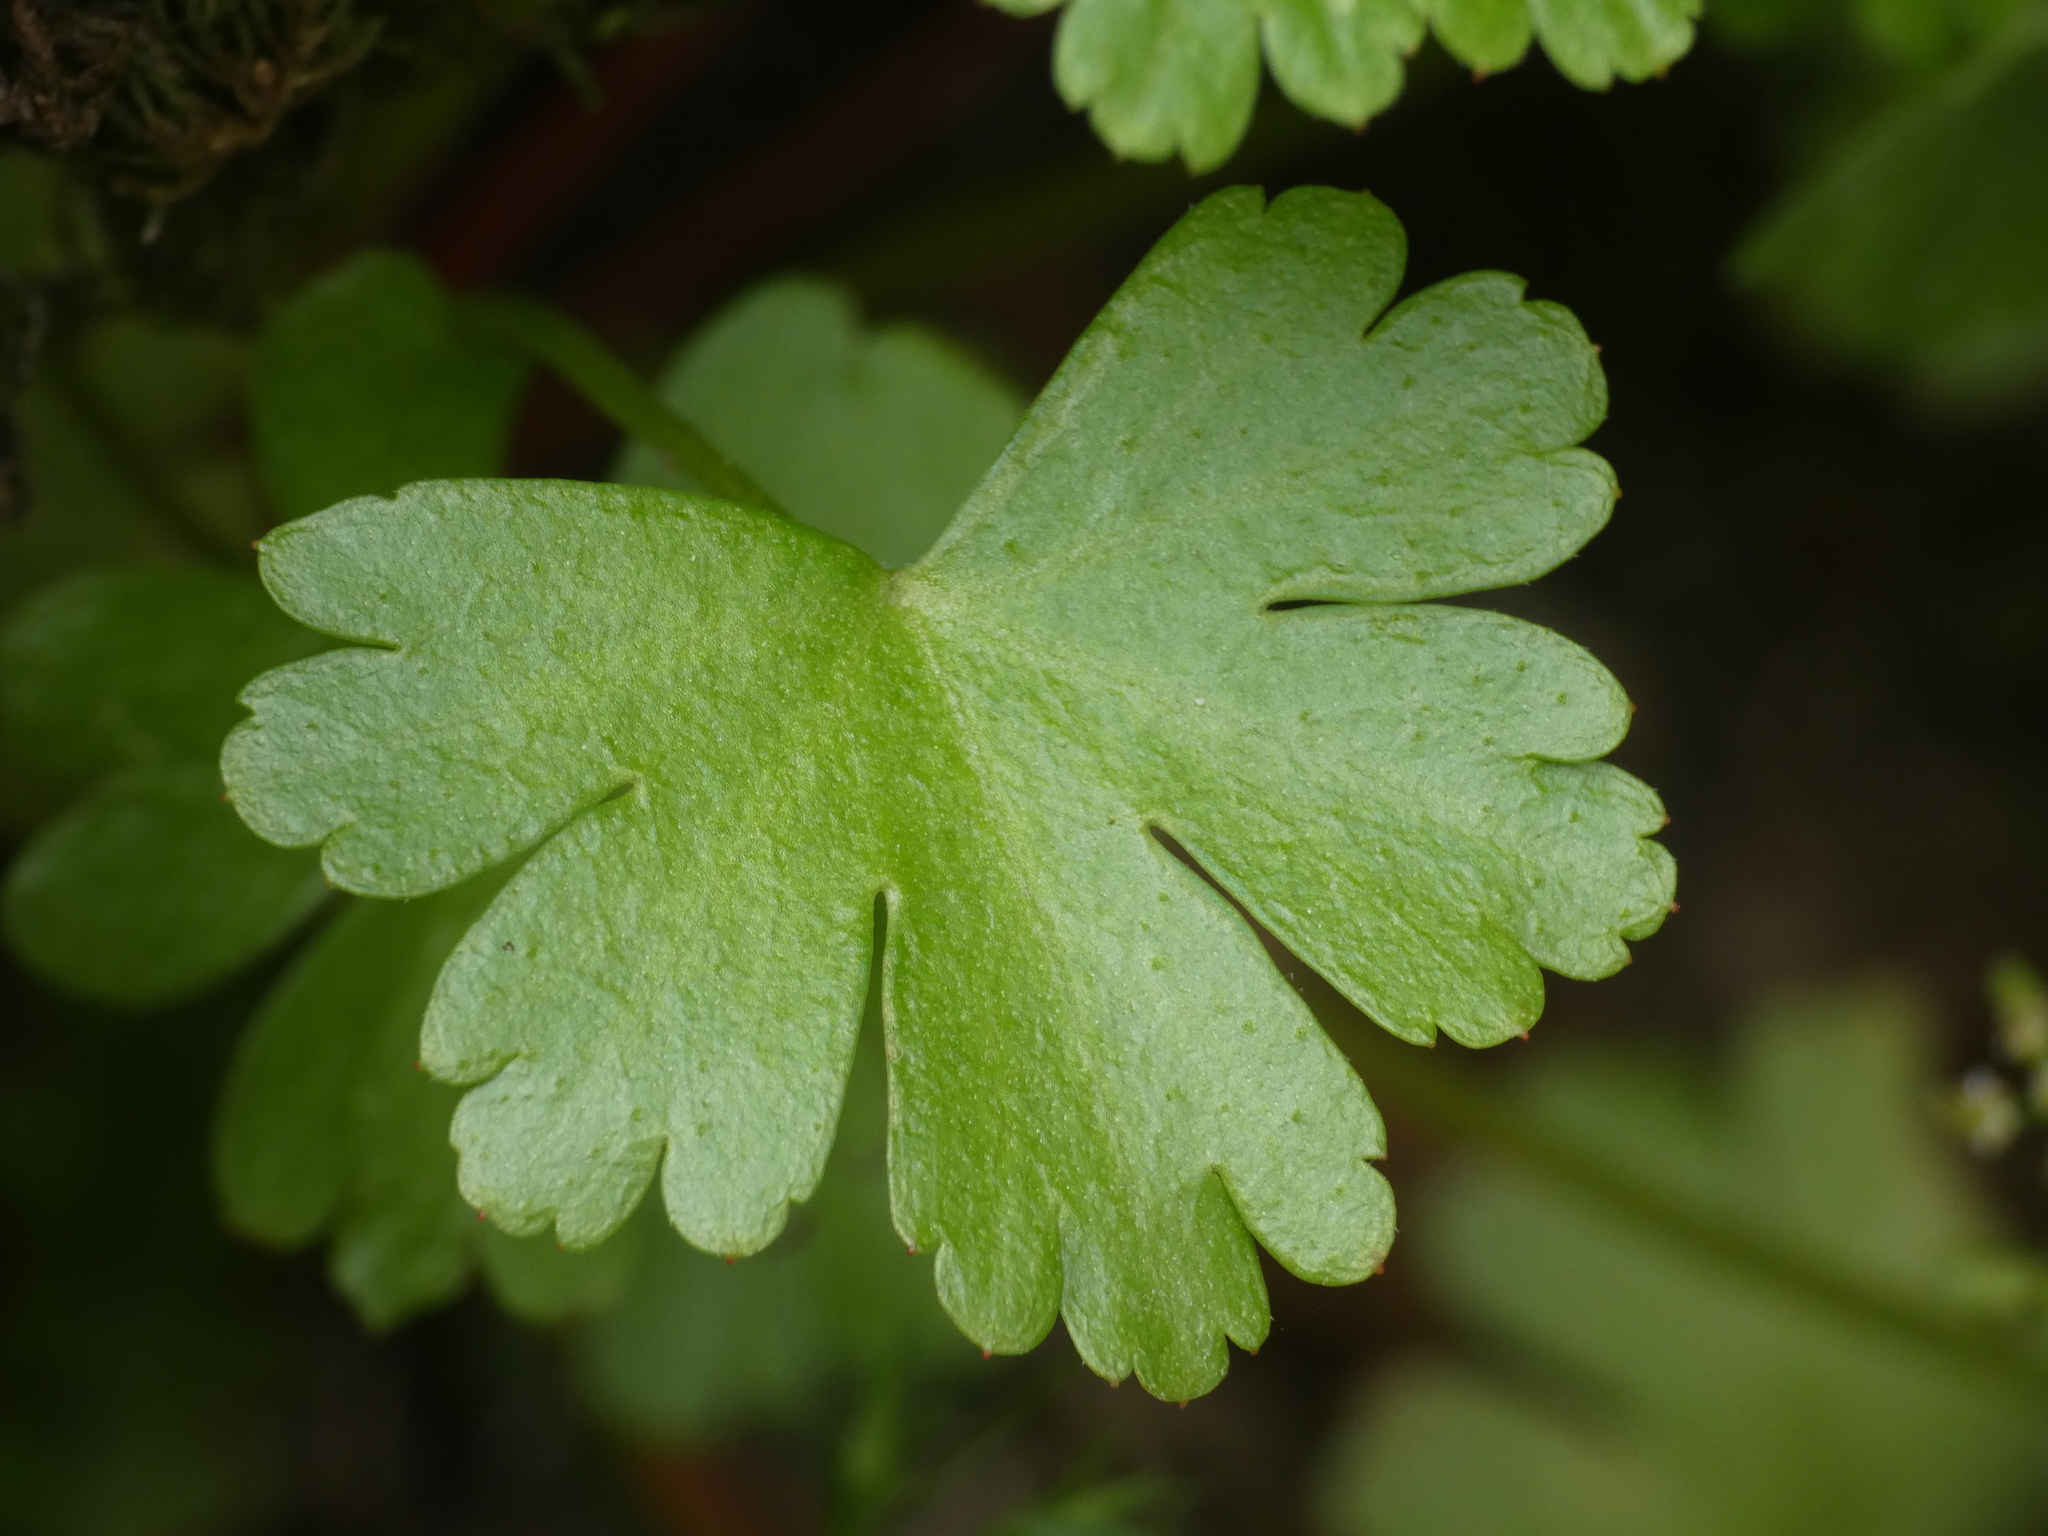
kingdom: Plantae
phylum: Tracheophyta
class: Magnoliopsida
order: Geraniales
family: Geraniaceae
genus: Geranium
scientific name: Geranium lucidum
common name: Shining crane's-bill
